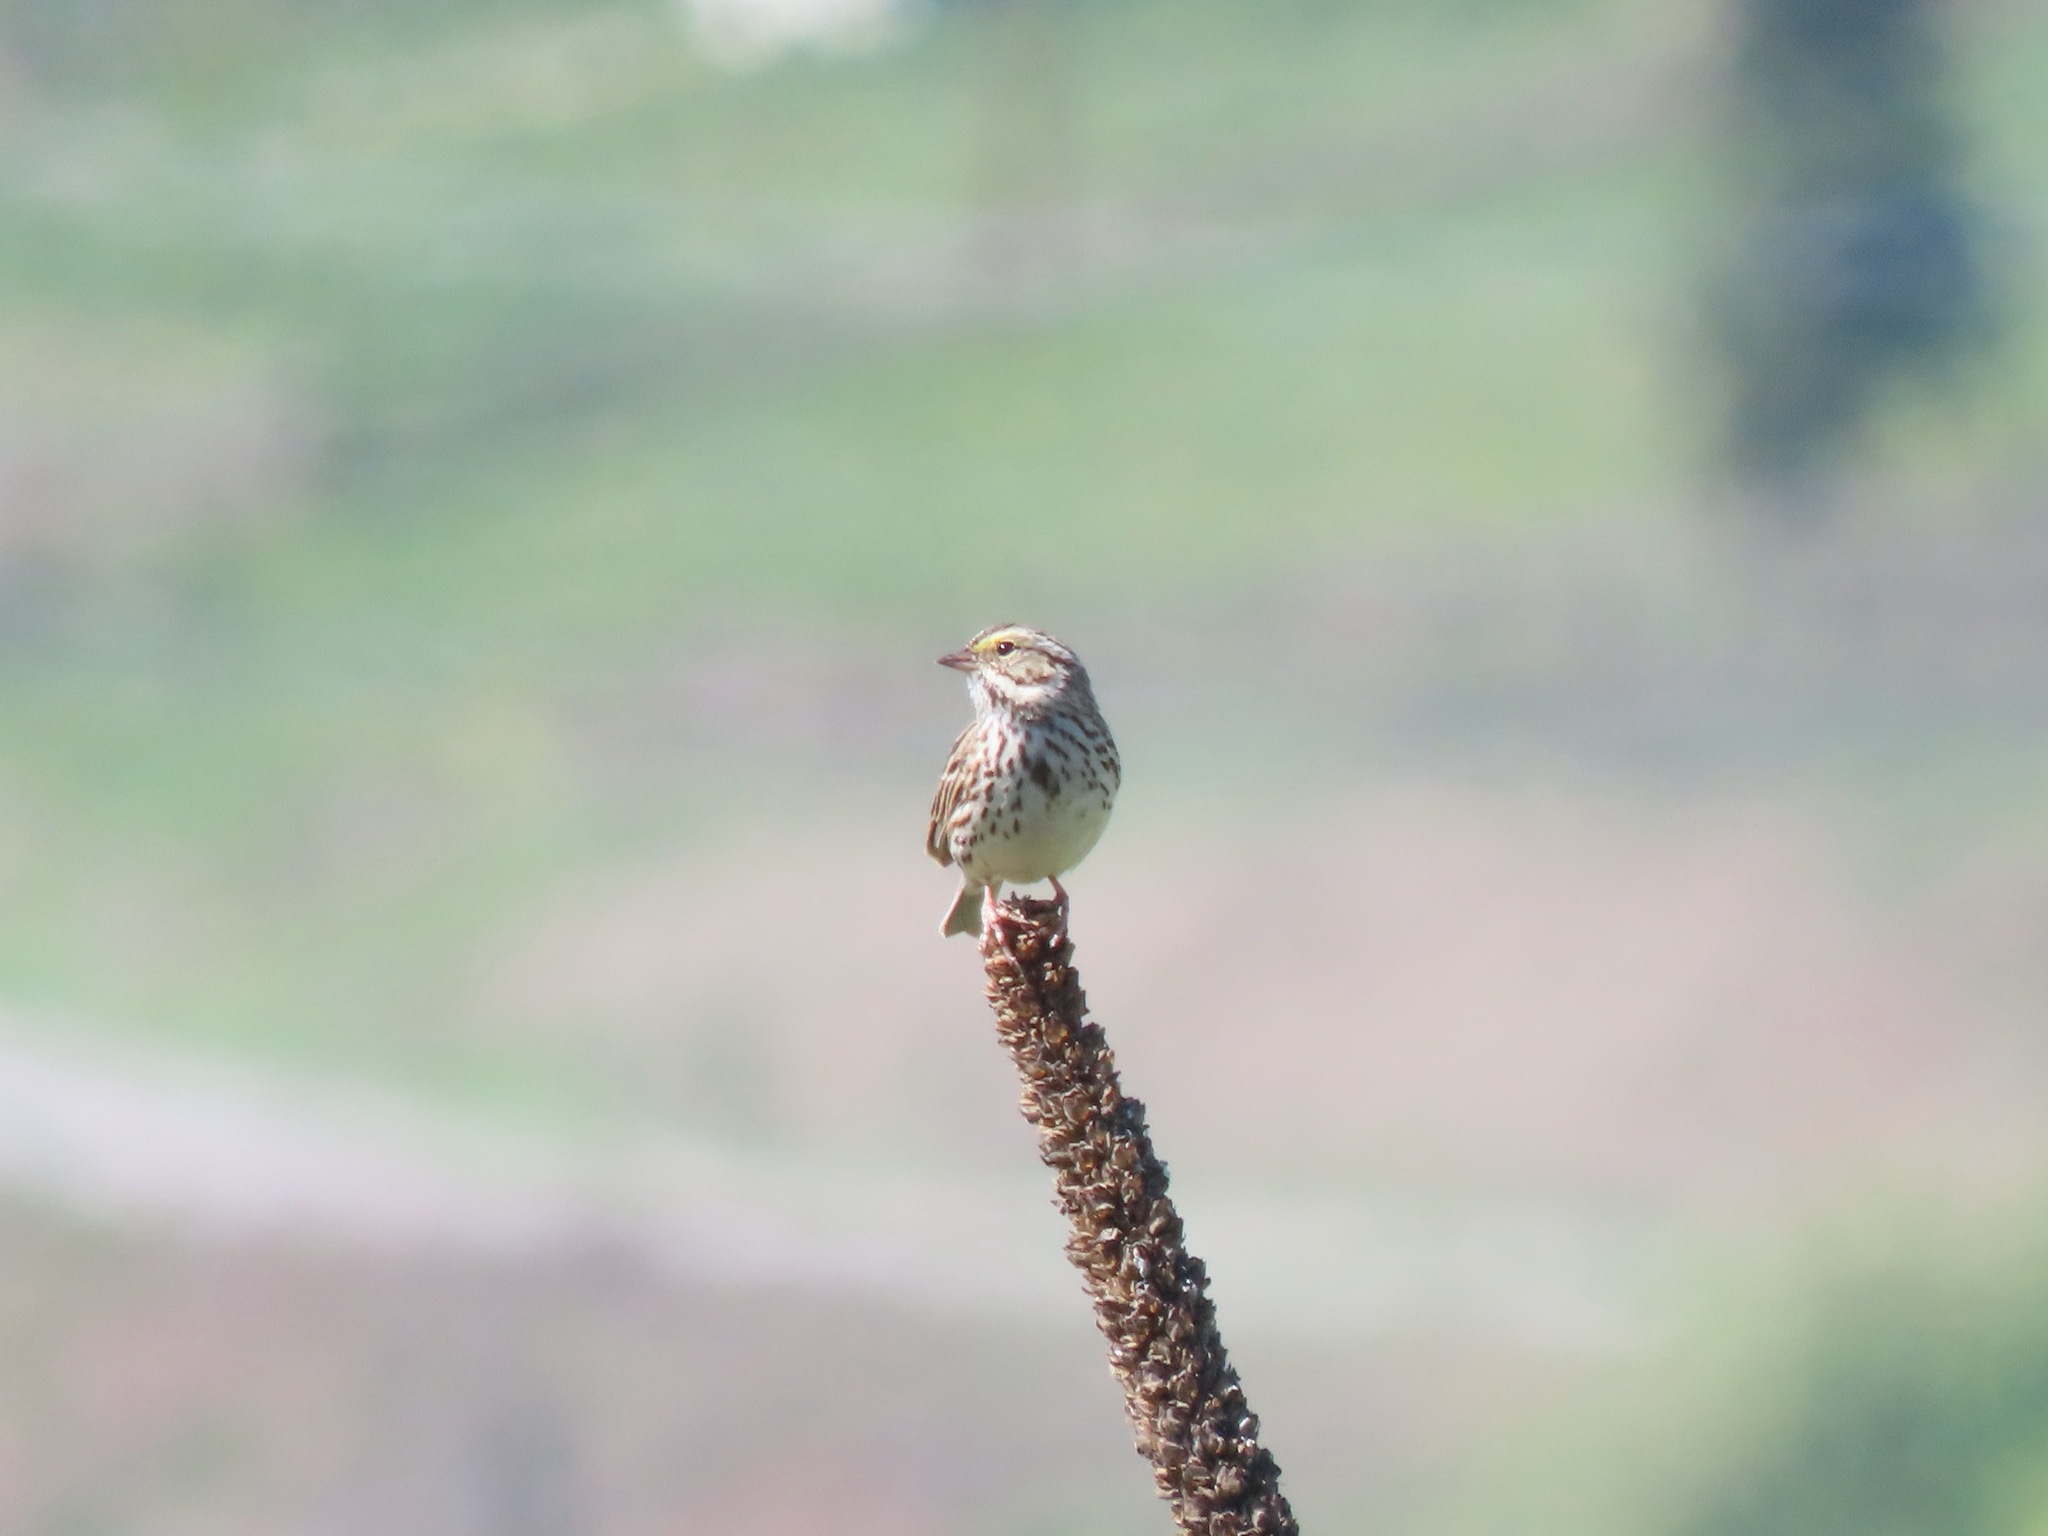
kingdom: Animalia
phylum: Chordata
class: Aves
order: Passeriformes
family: Passerellidae
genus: Passerculus
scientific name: Passerculus sandwichensis
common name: Savannah sparrow
